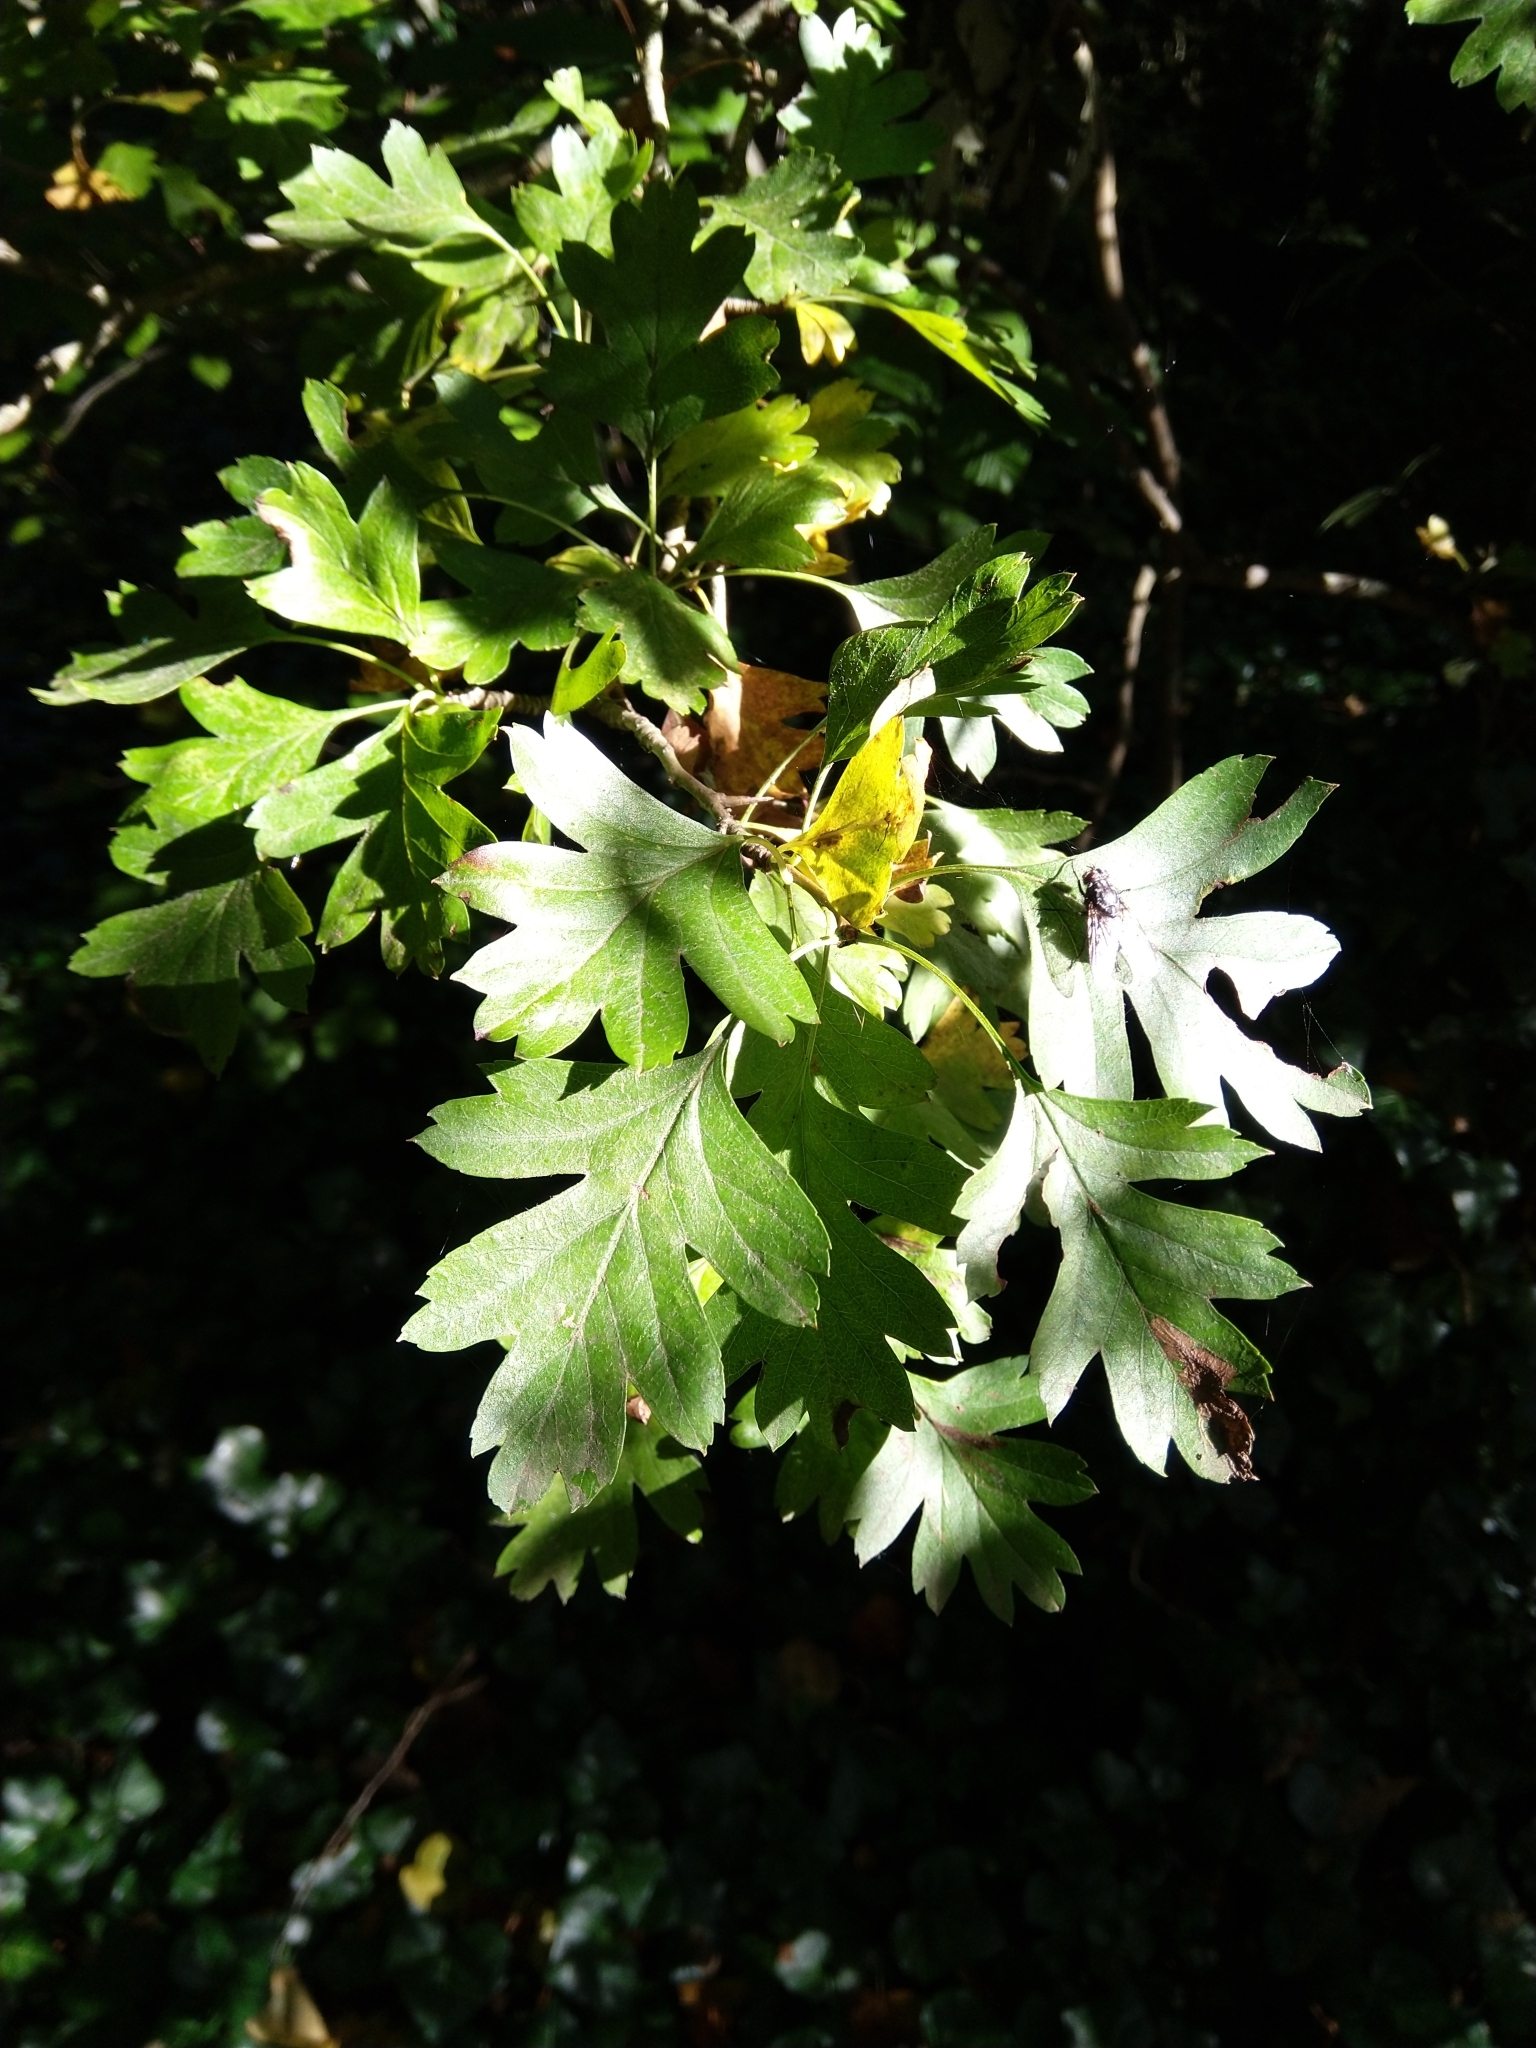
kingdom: Plantae
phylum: Tracheophyta
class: Magnoliopsida
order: Rosales
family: Rosaceae
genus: Crataegus
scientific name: Crataegus monogyna
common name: Hawthorn
